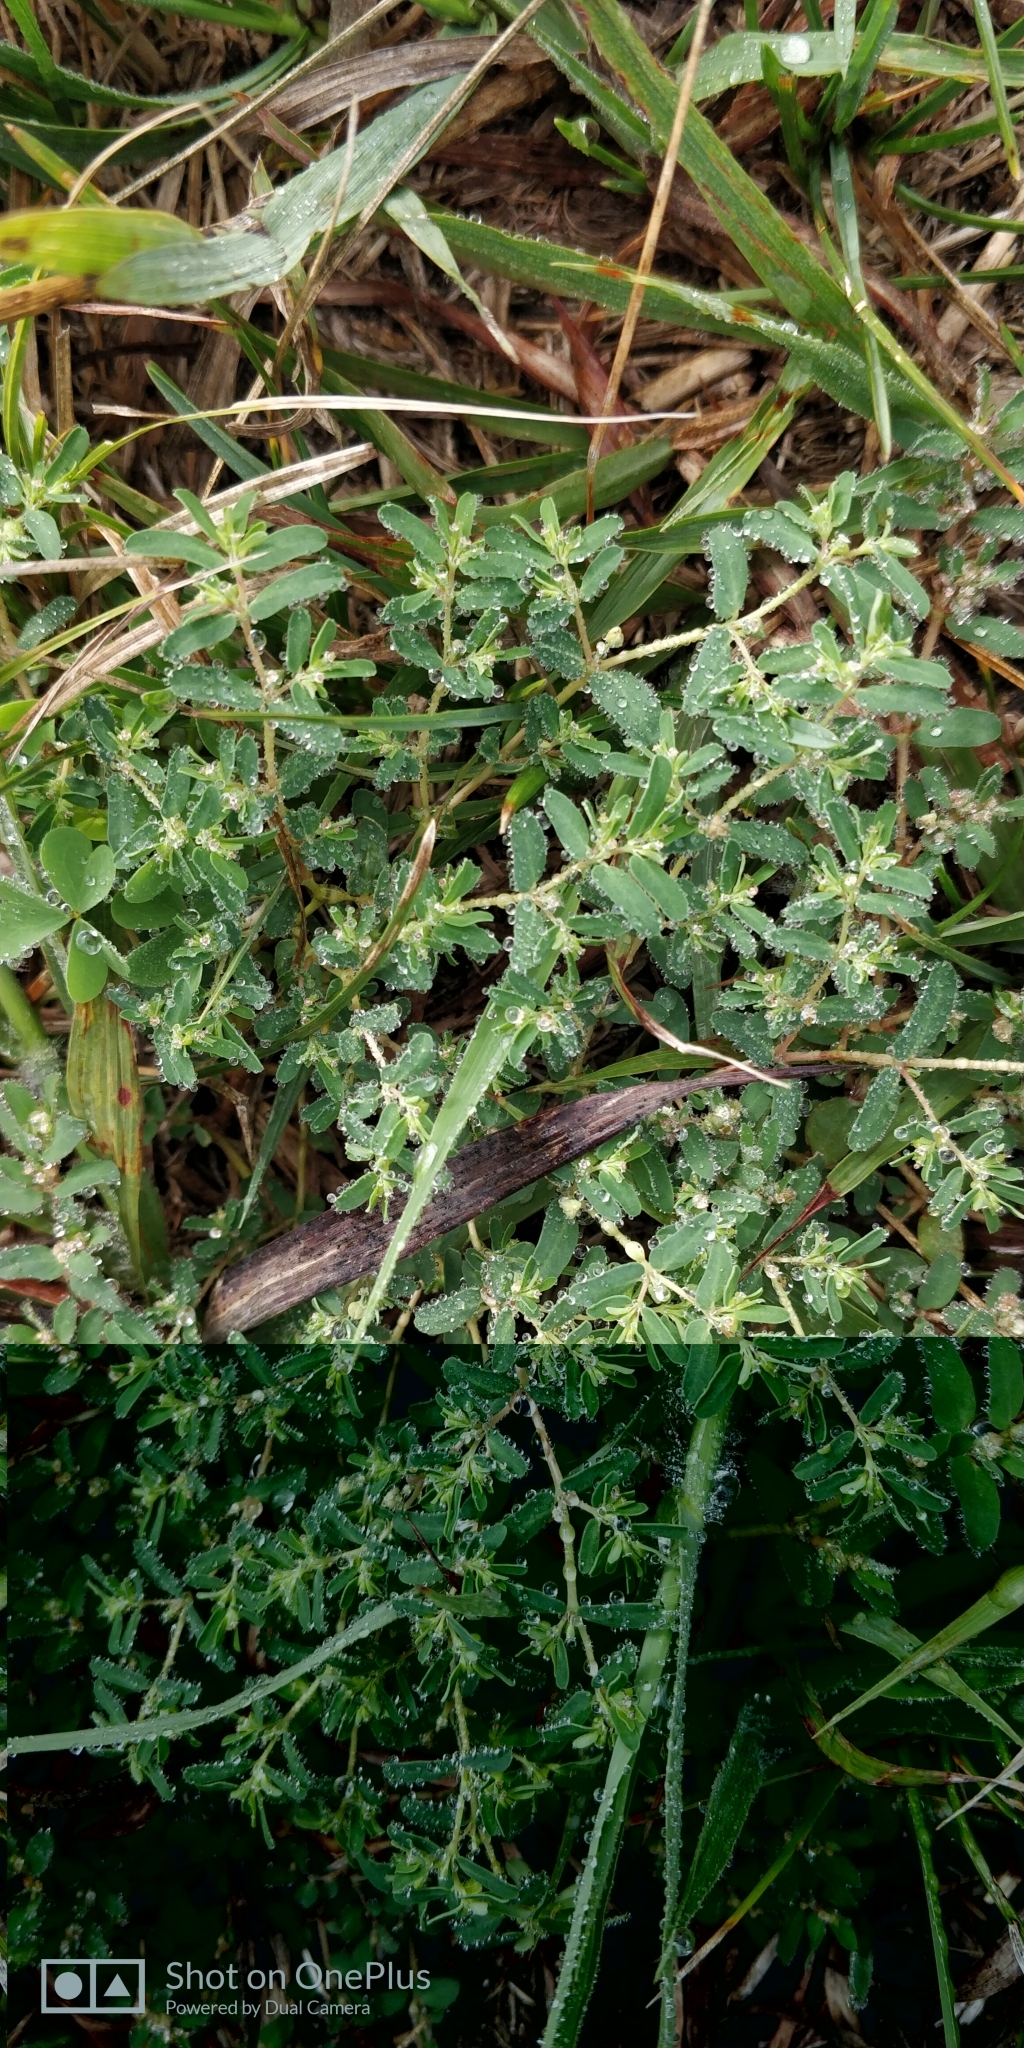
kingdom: Plantae
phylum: Tracheophyta
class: Magnoliopsida
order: Malpighiales
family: Euphorbiaceae
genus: Euphorbia
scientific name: Euphorbia glyptosperma
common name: Corrugate-seeded spurge
